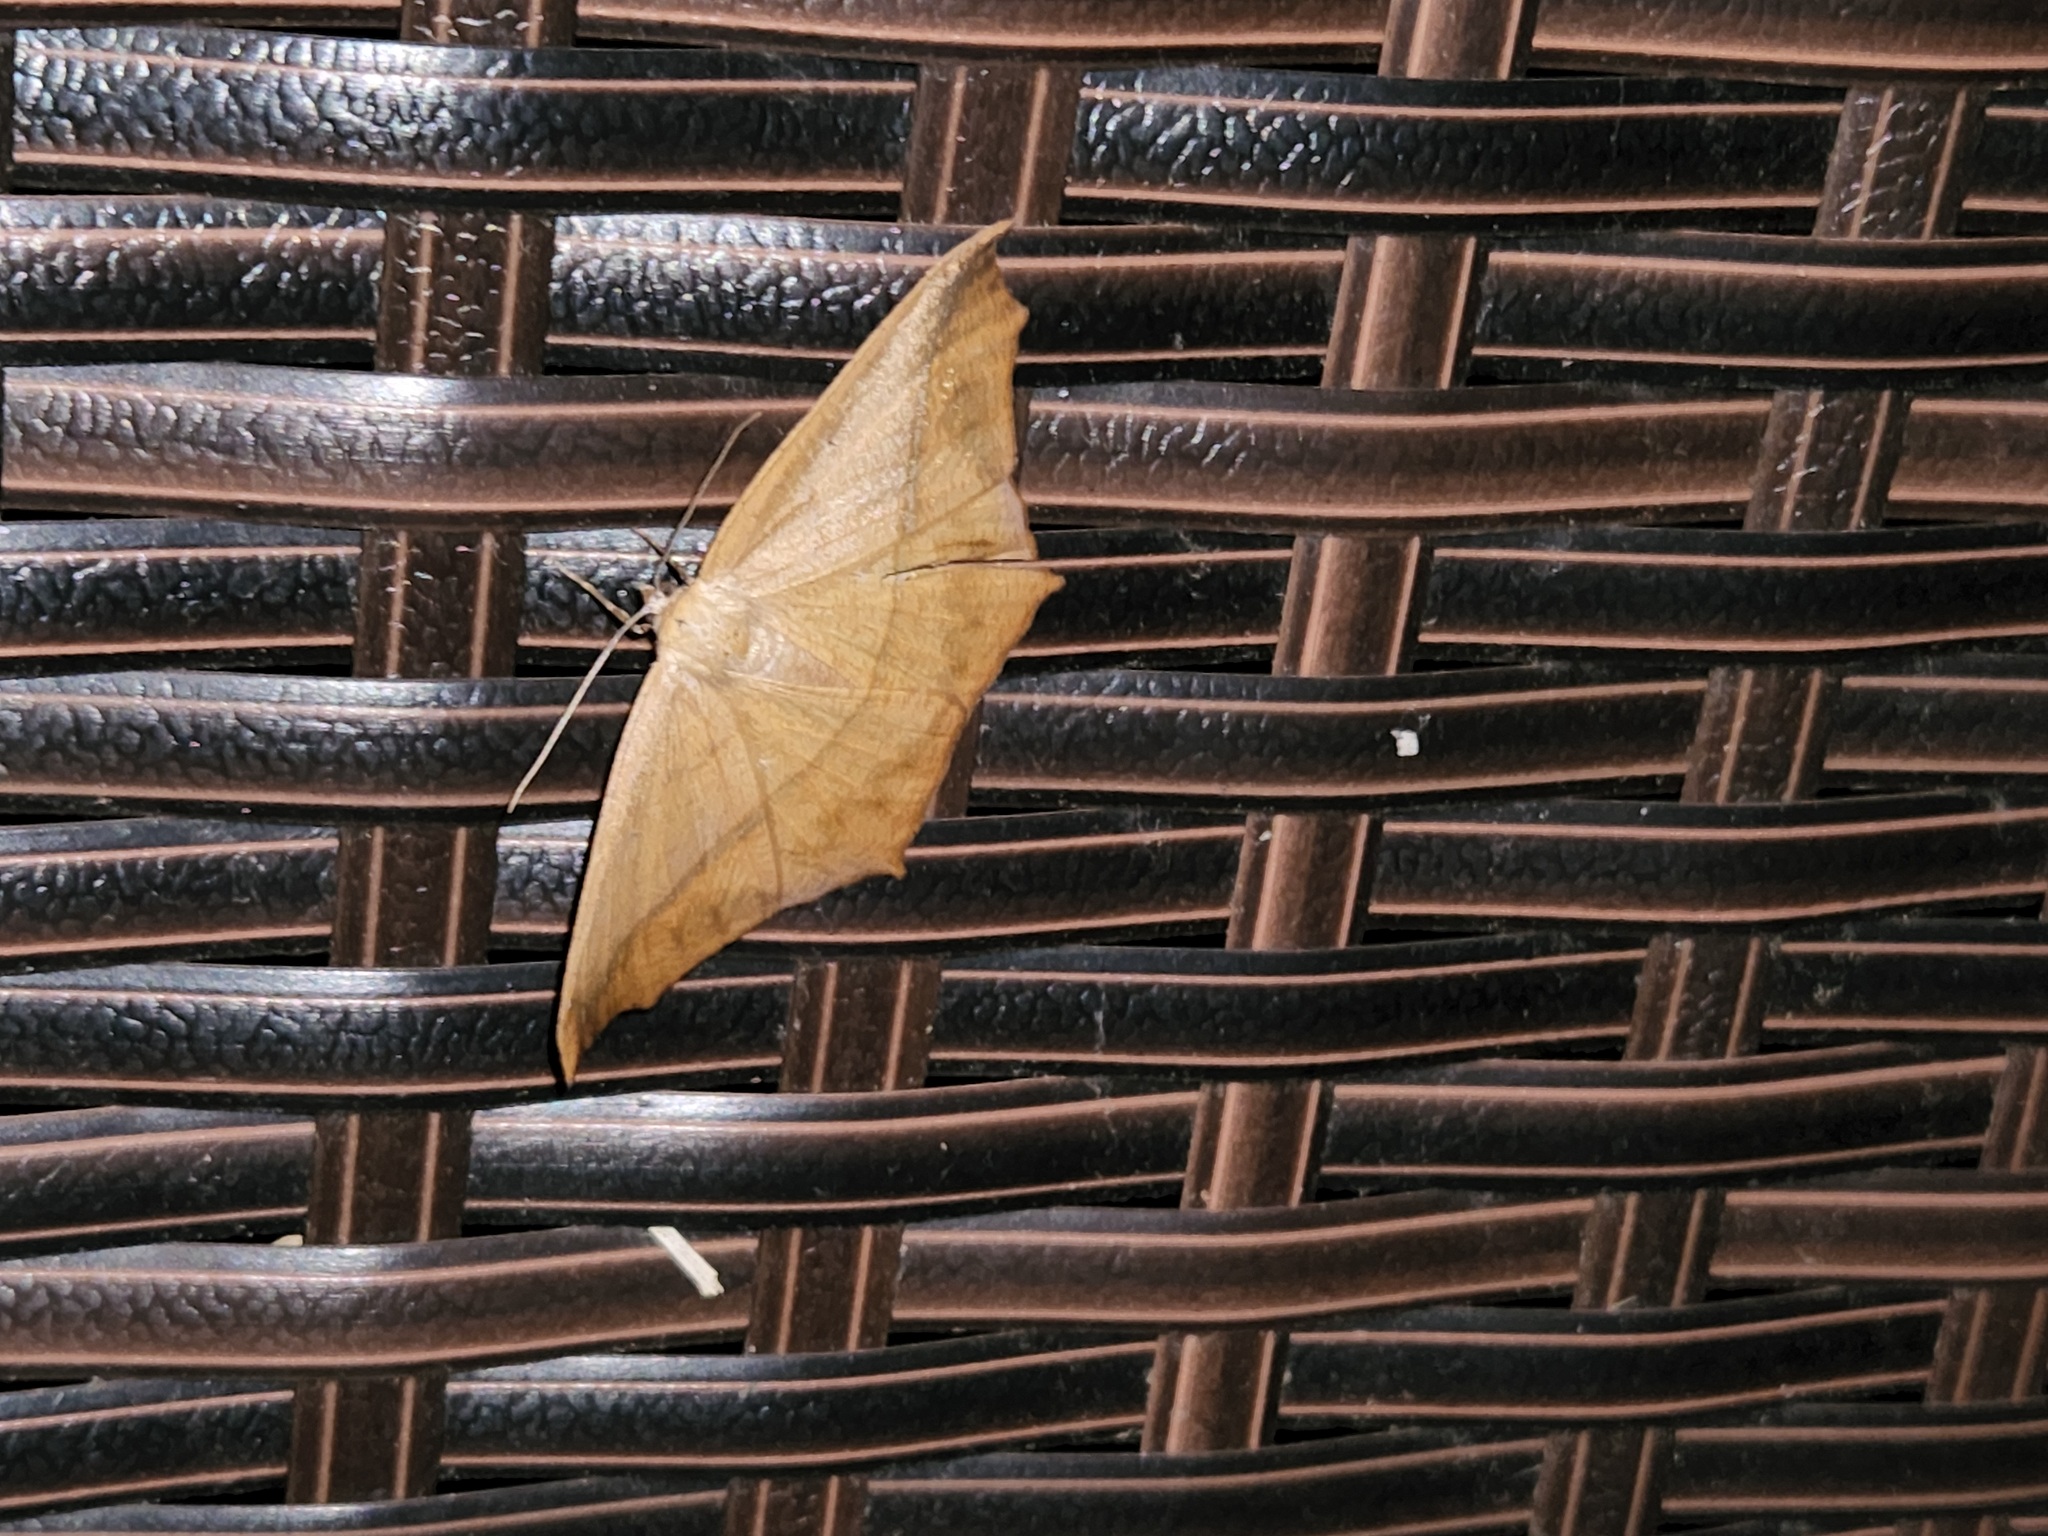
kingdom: Animalia
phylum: Arthropoda
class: Insecta
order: Lepidoptera
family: Geometridae
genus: Prochoerodes
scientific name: Prochoerodes lineola
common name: Large maple spanworm
